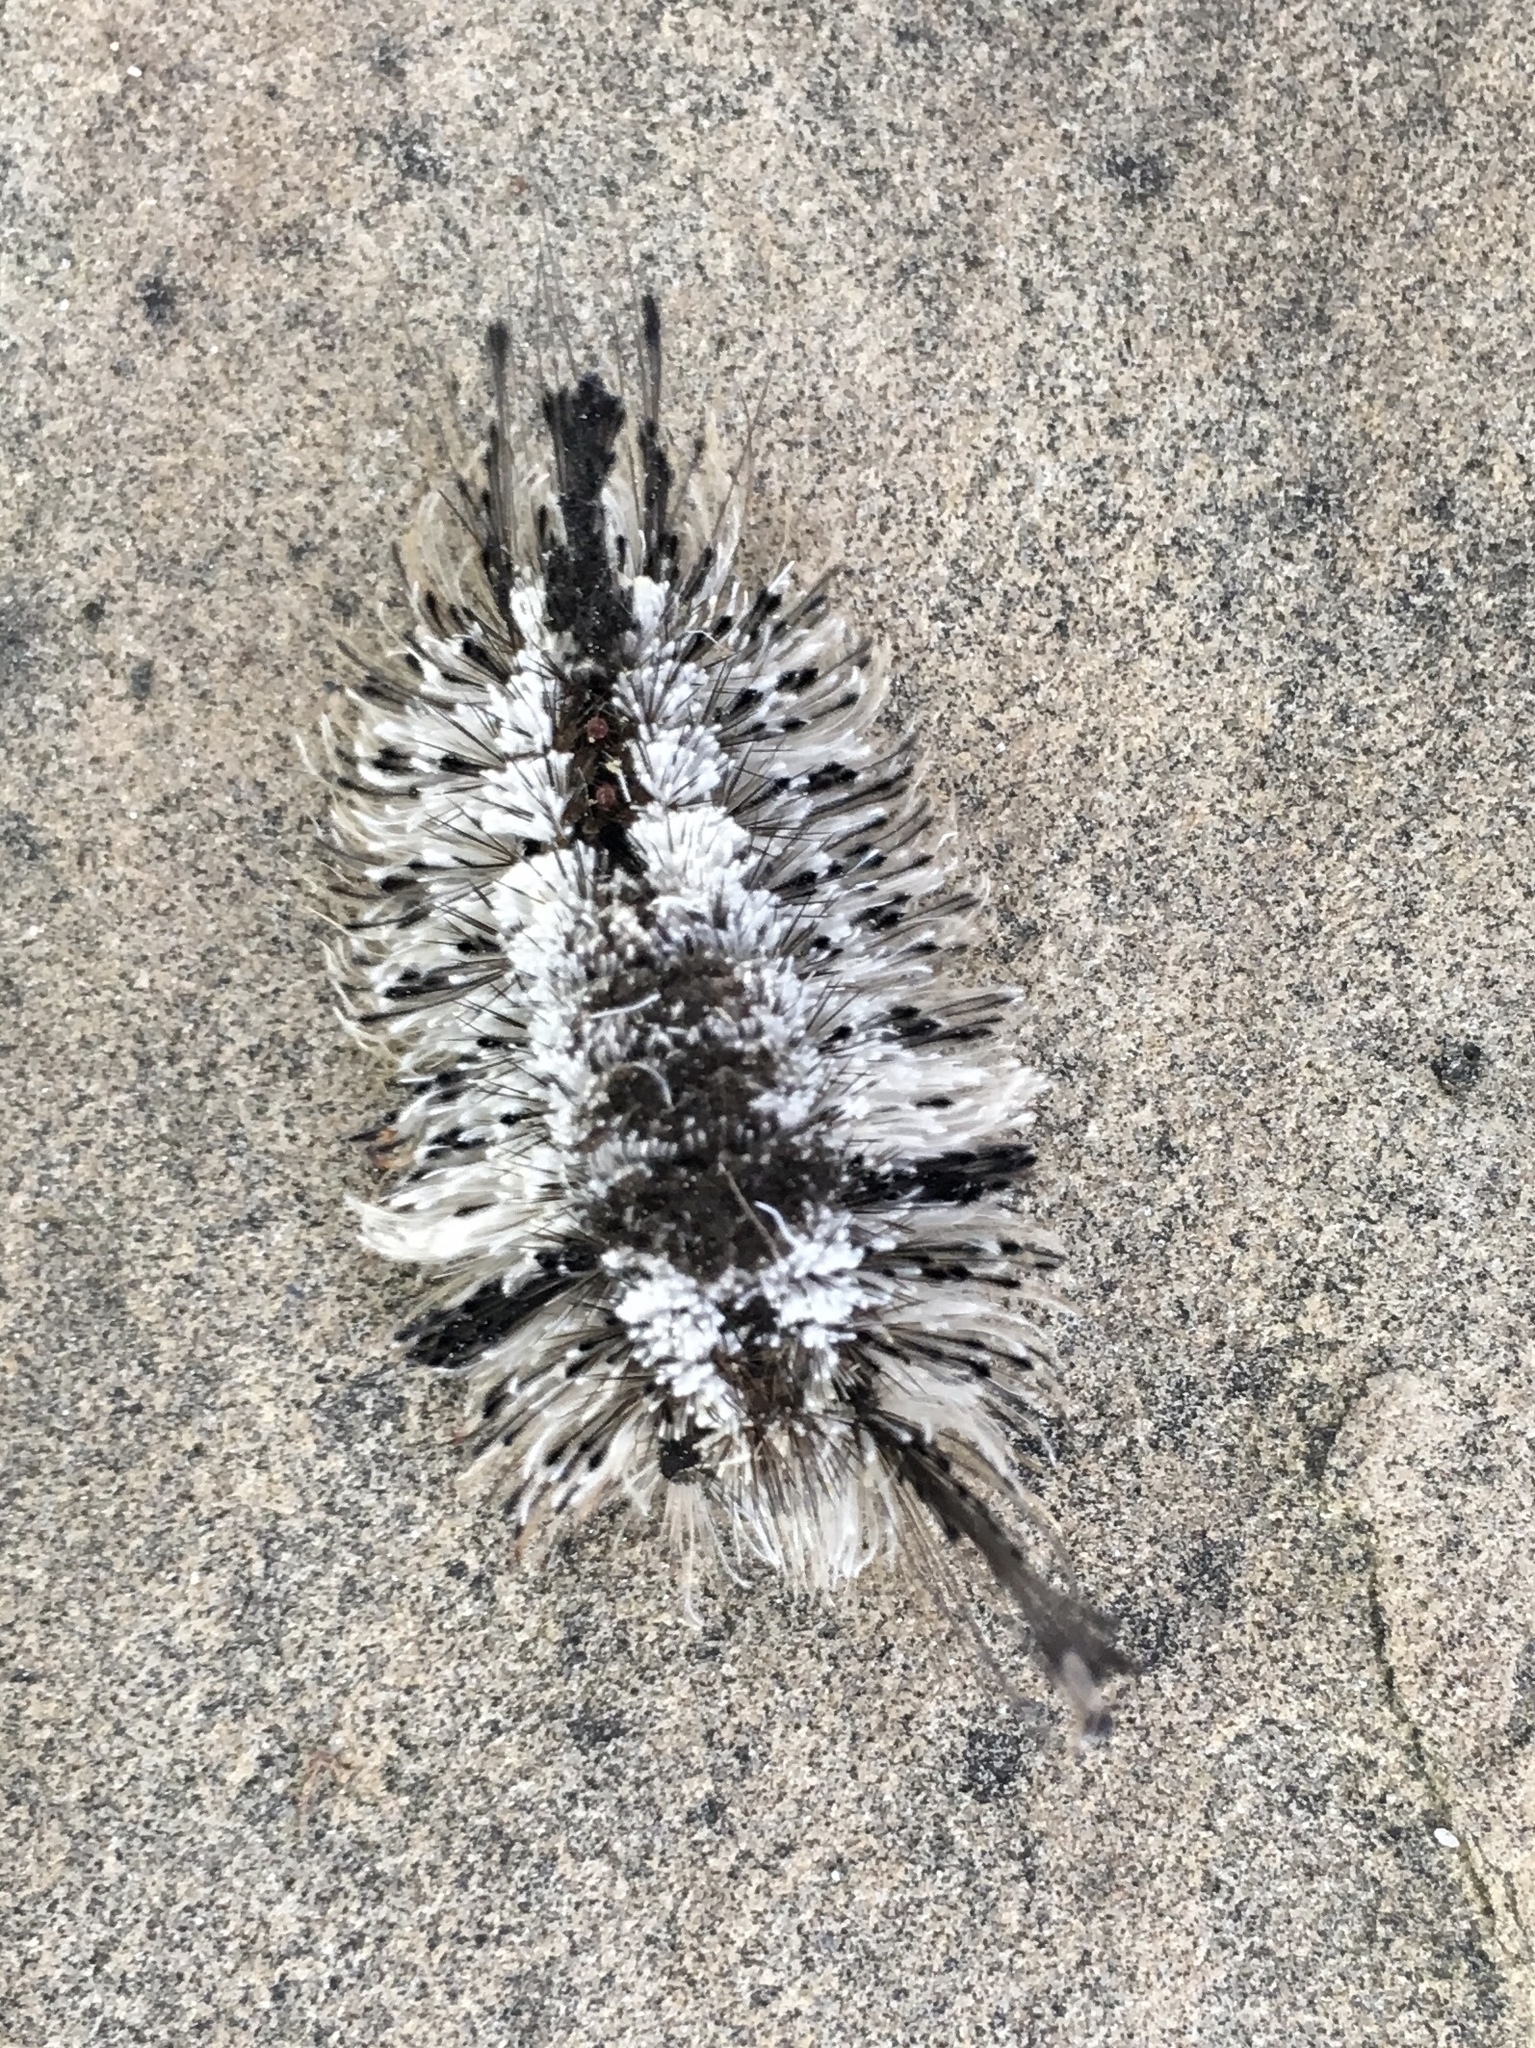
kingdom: Animalia
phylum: Arthropoda
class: Insecta
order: Lepidoptera
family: Erebidae
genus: Dasychira
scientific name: Dasychira meridionalis
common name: Southern tussock moth
